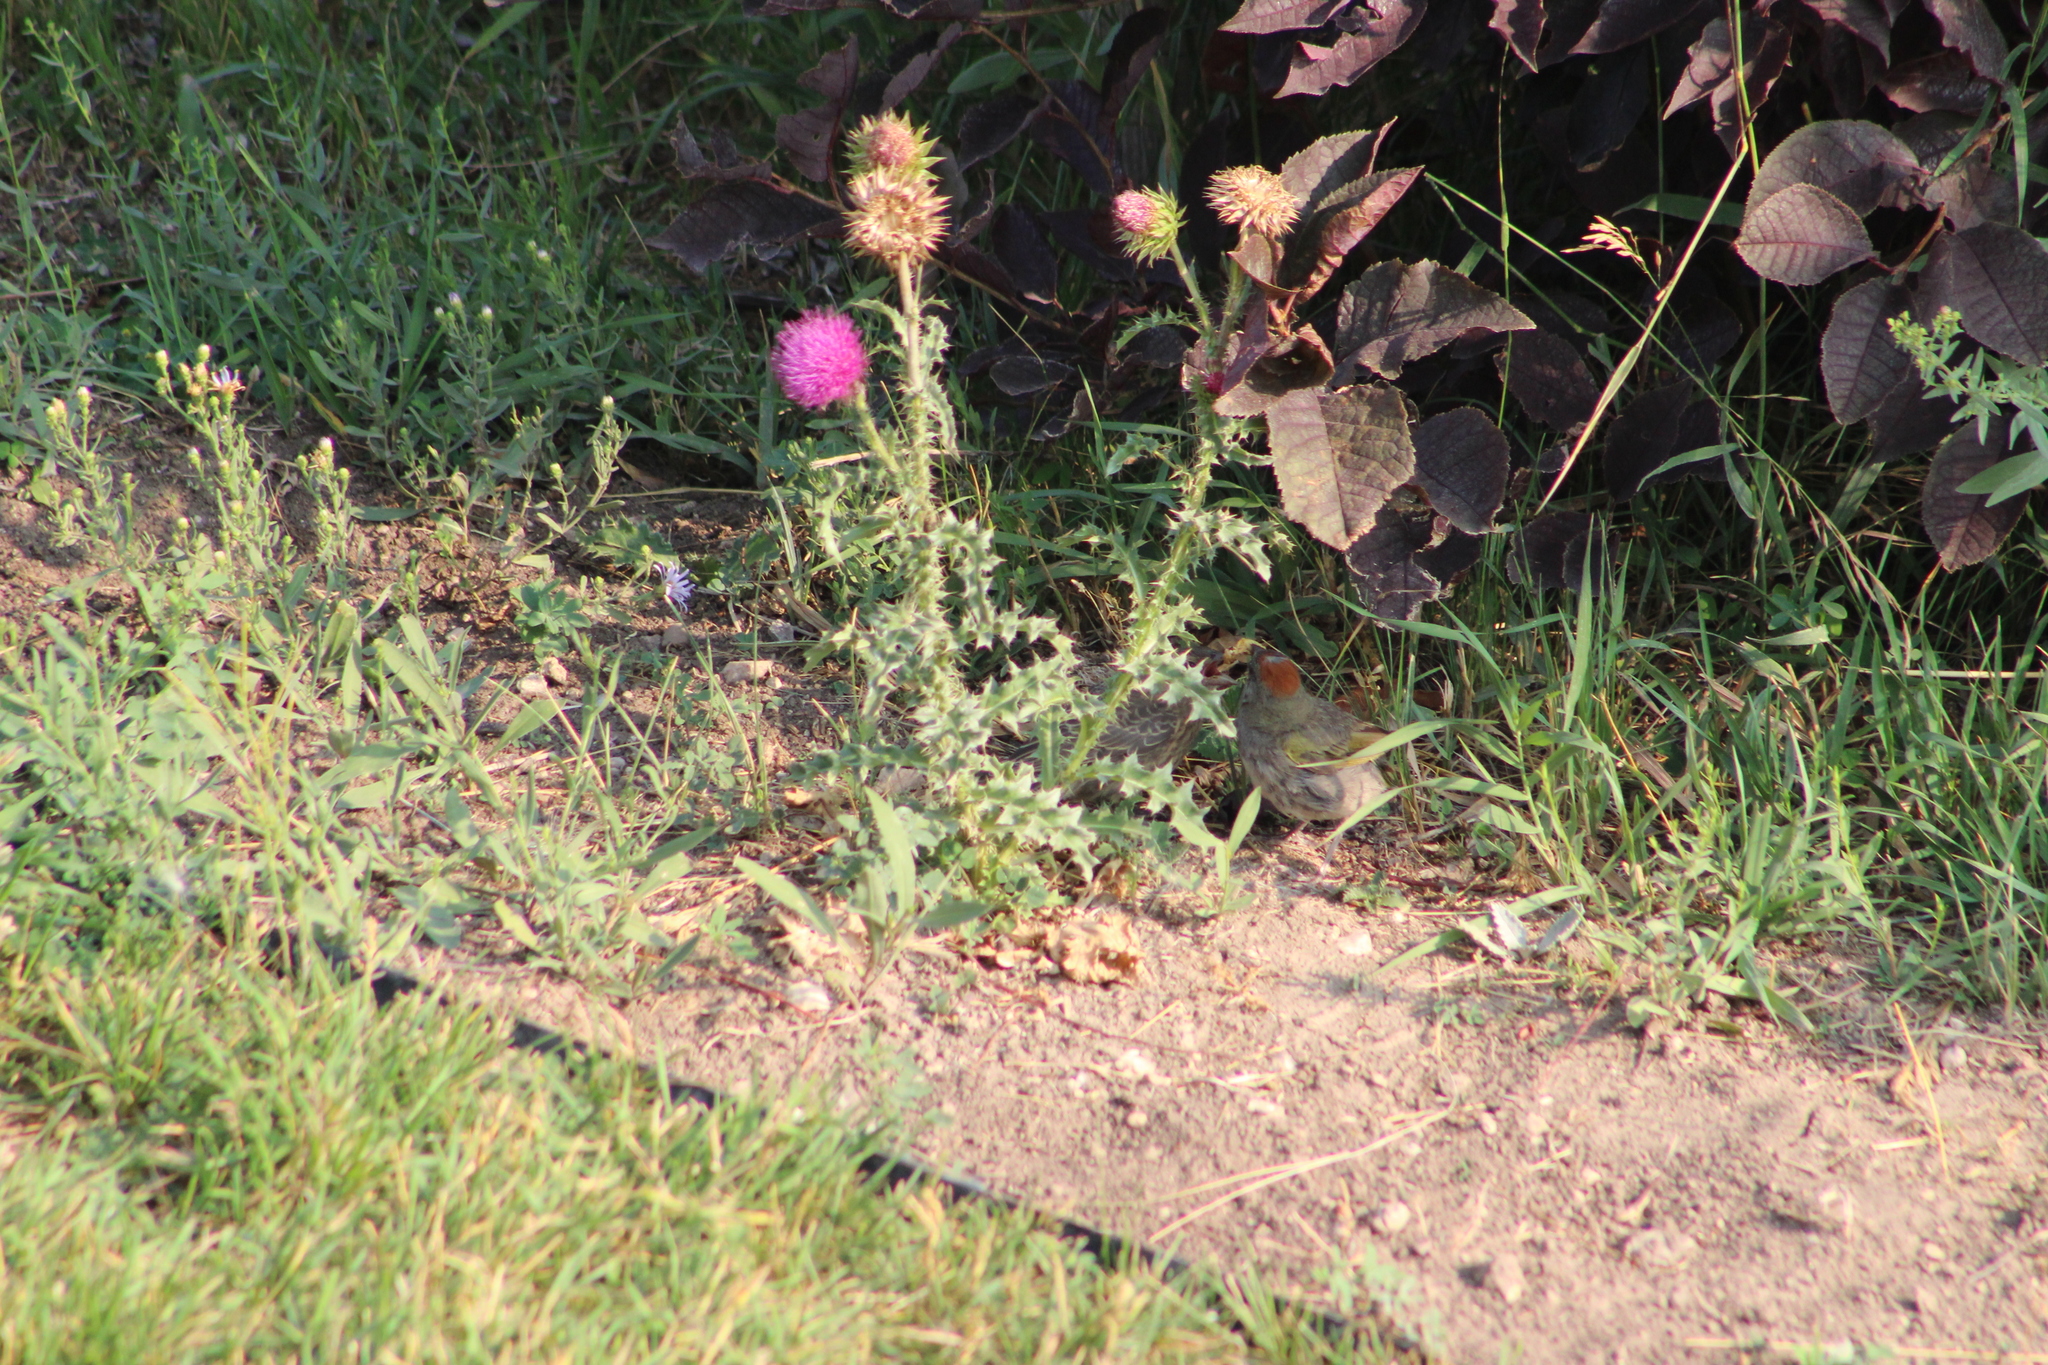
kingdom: Animalia
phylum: Chordata
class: Aves
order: Passeriformes
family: Icteridae
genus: Molothrus
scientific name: Molothrus ater
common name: Brown-headed cowbird
